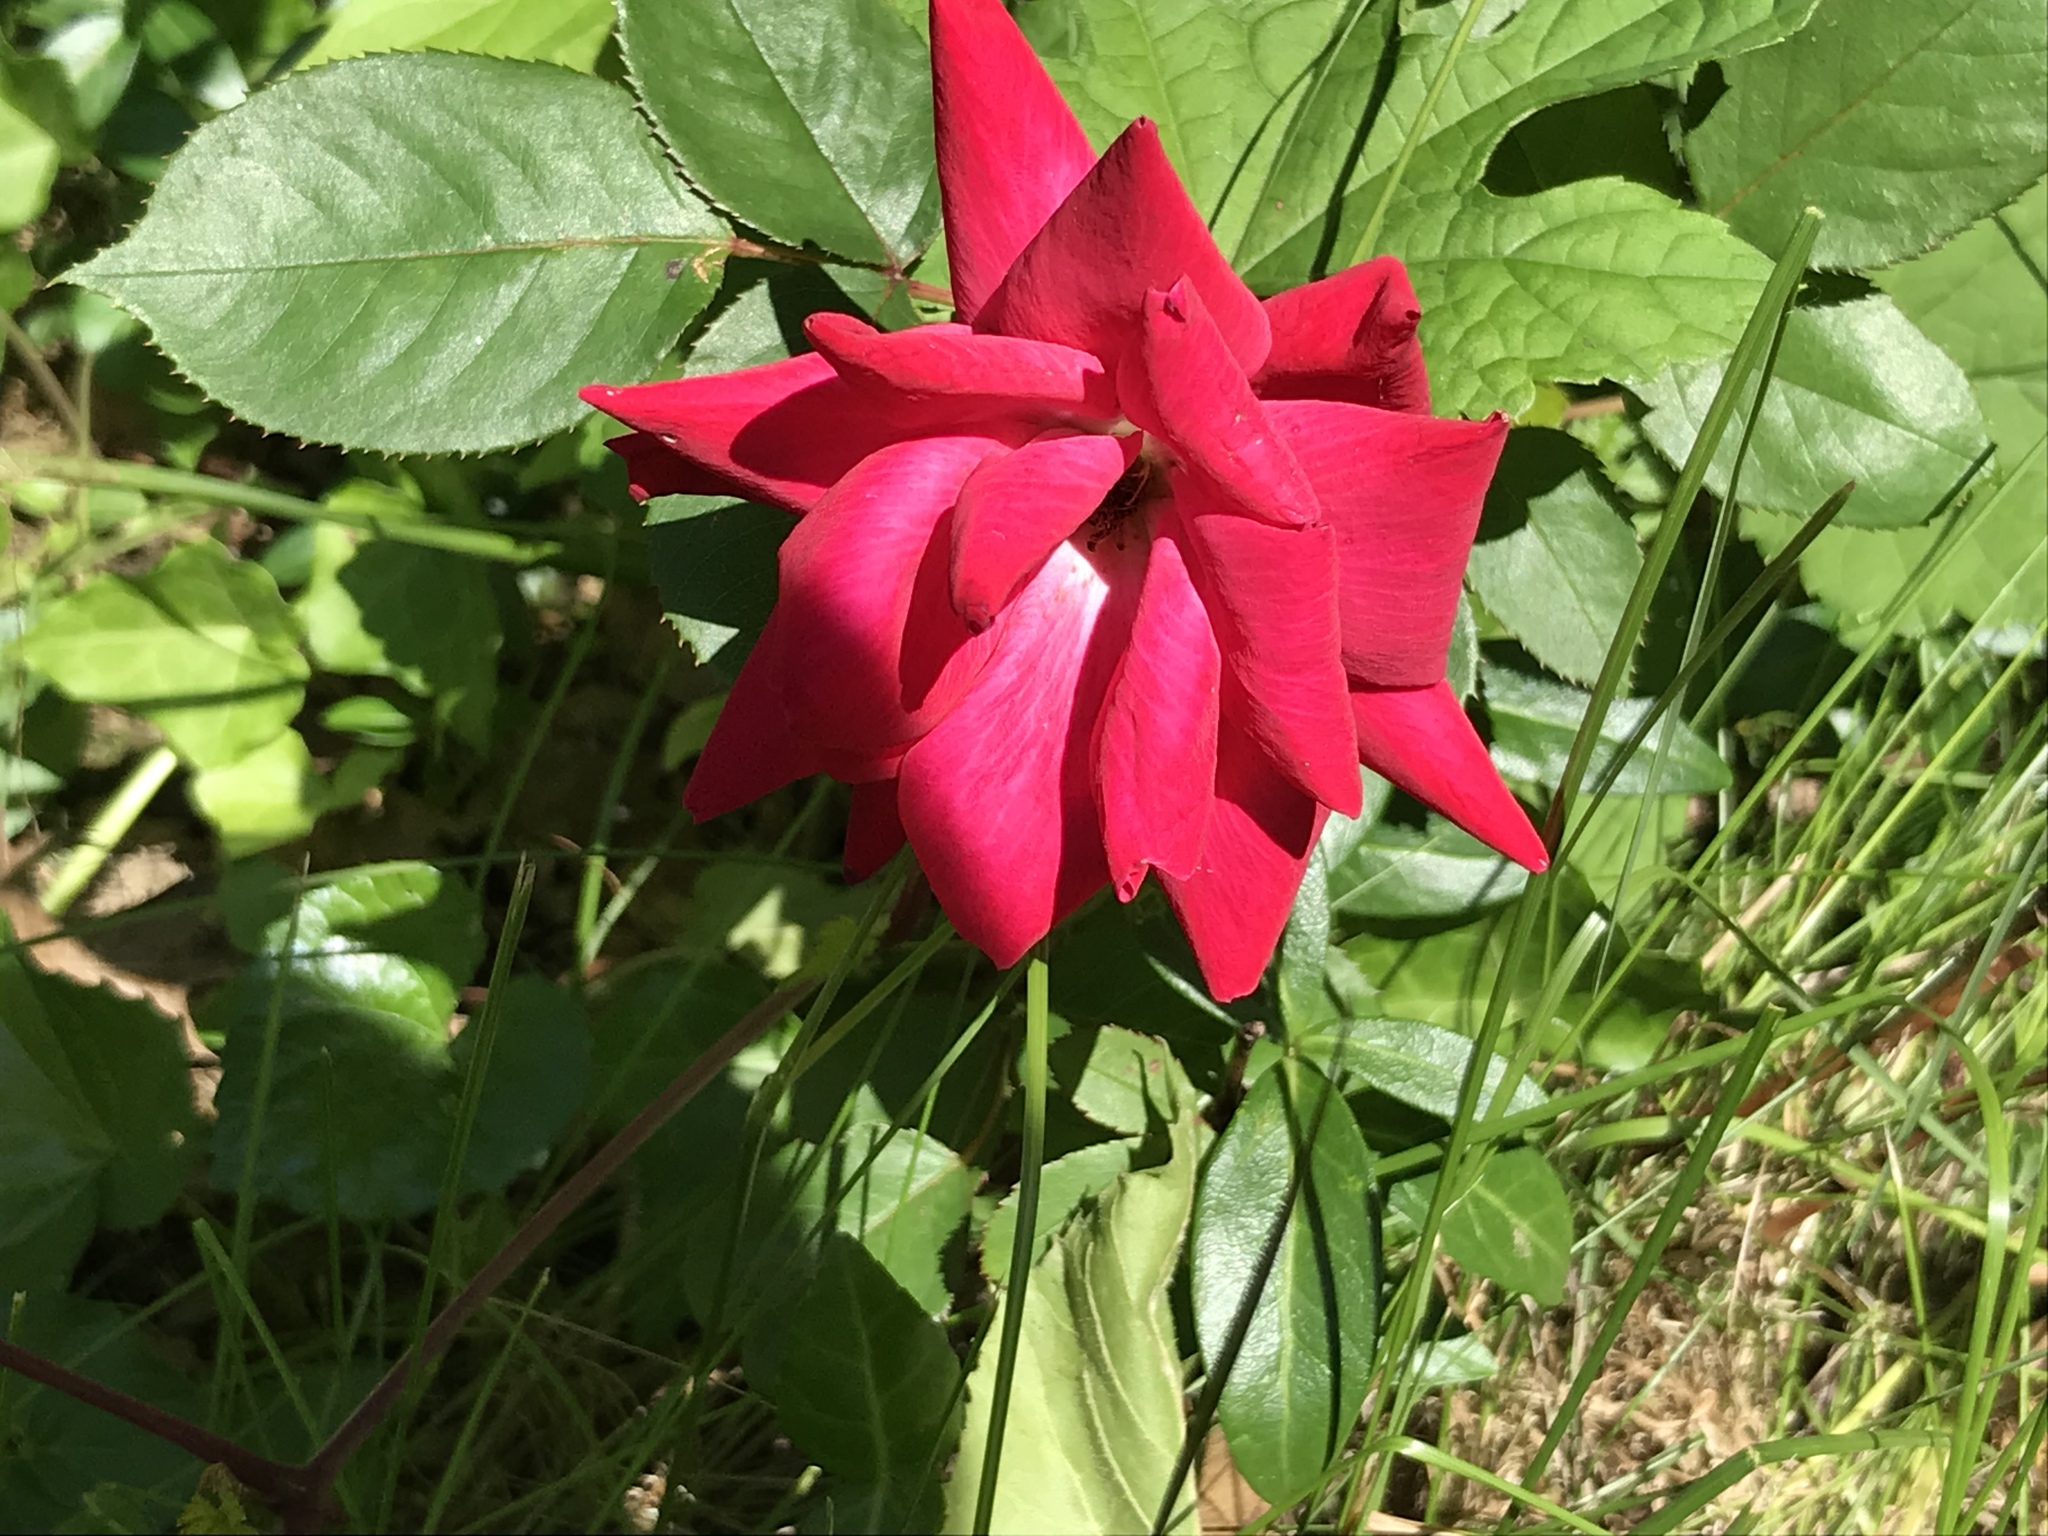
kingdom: Plantae
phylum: Tracheophyta
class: Magnoliopsida
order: Rosales
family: Rosaceae
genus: Rosa
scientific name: Rosa
